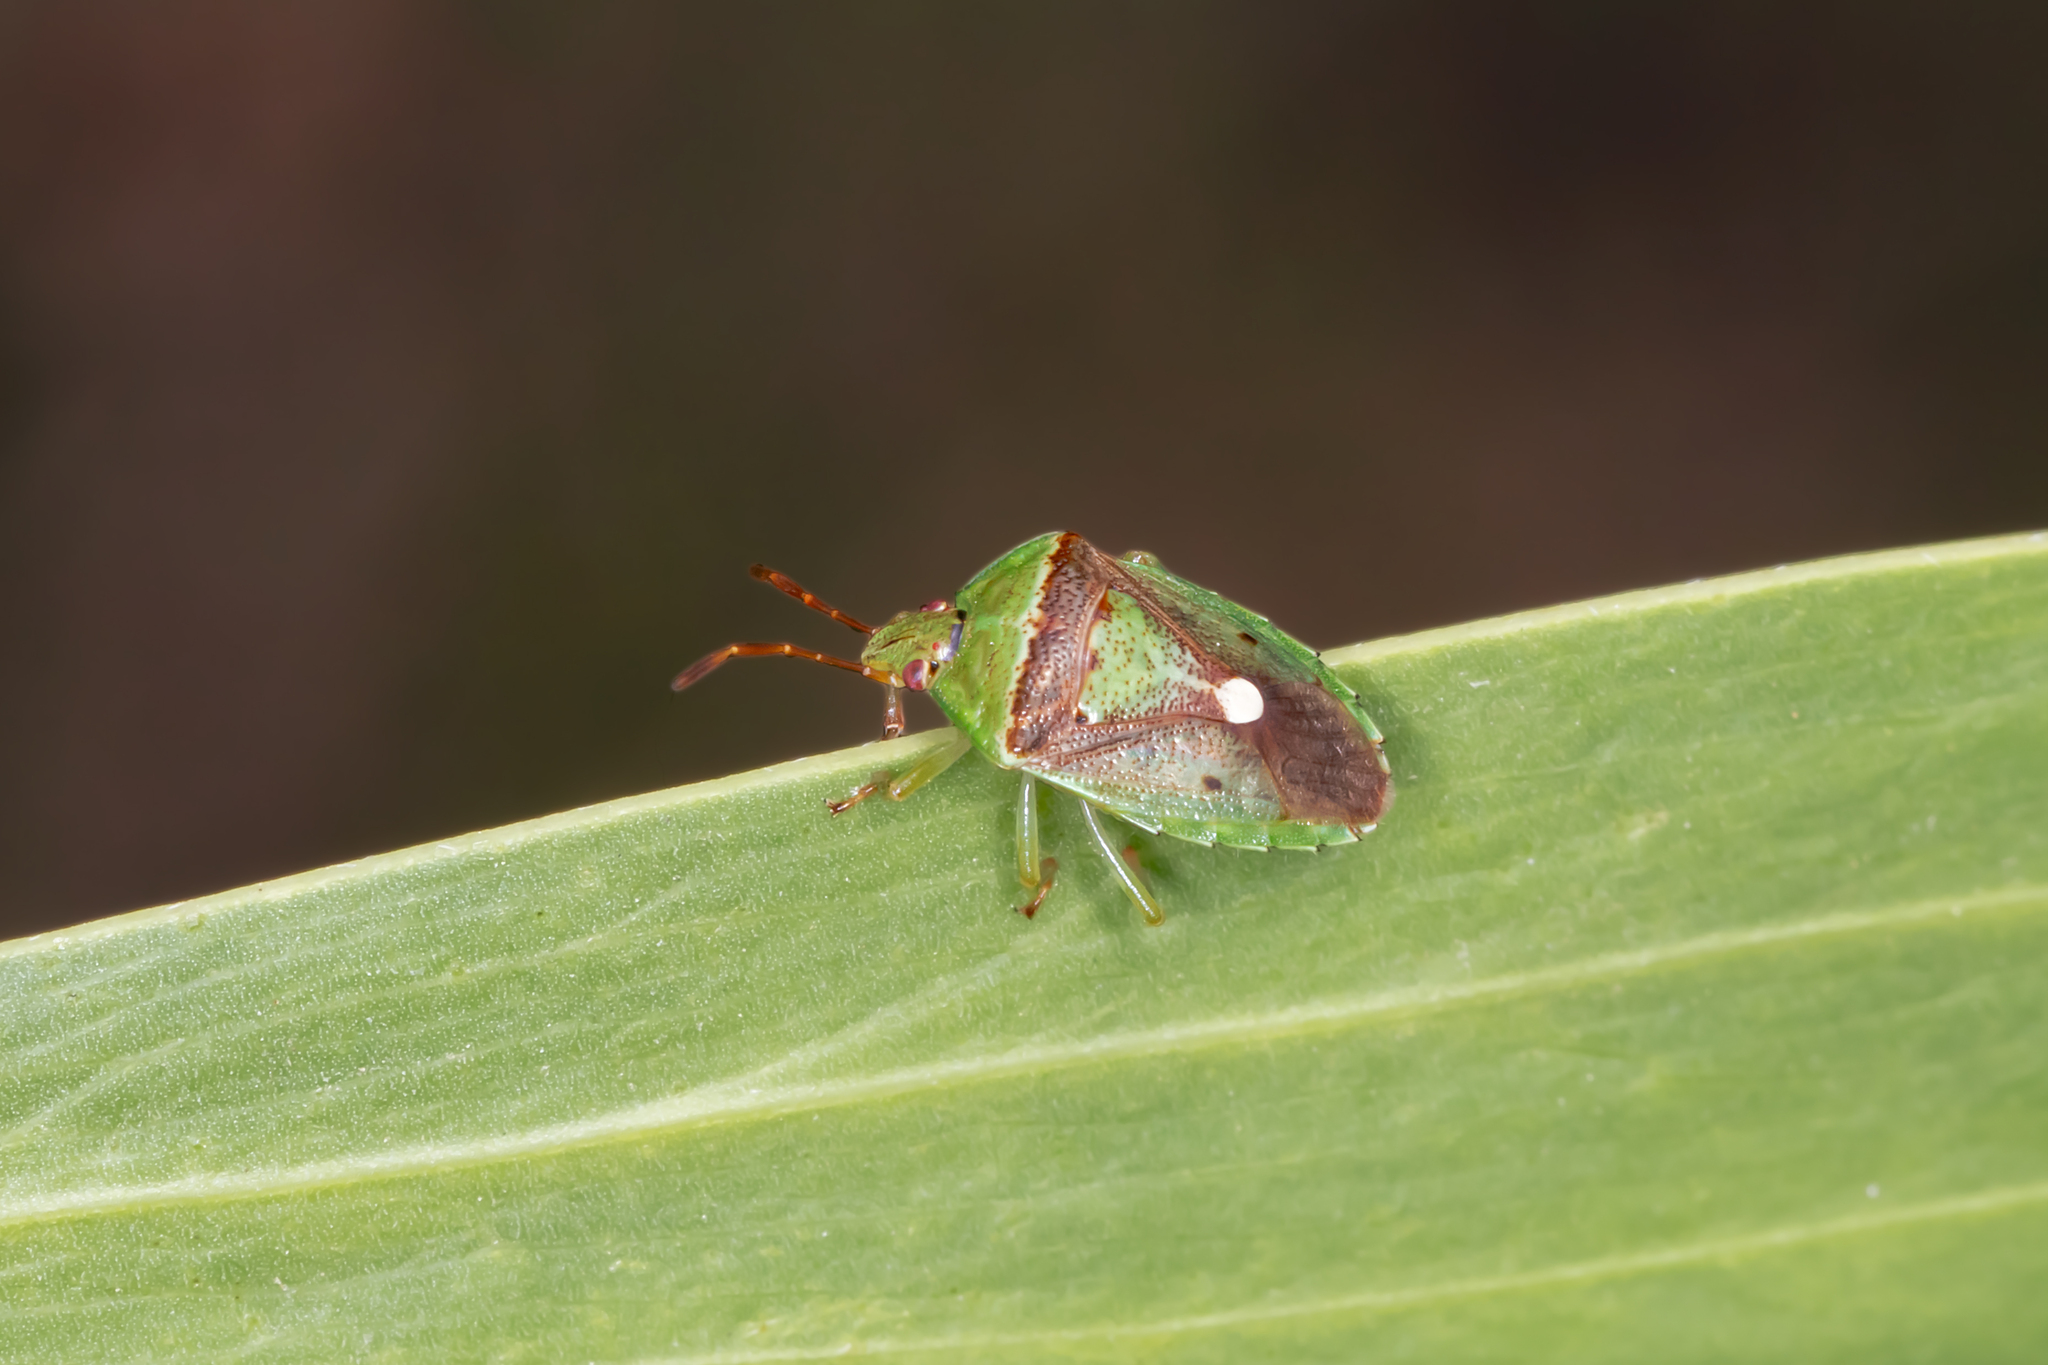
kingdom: Animalia
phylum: Arthropoda
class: Insecta
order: Hemiptera
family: Pentatomidae
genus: Ocirrhoe
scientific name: Ocirrhoe
